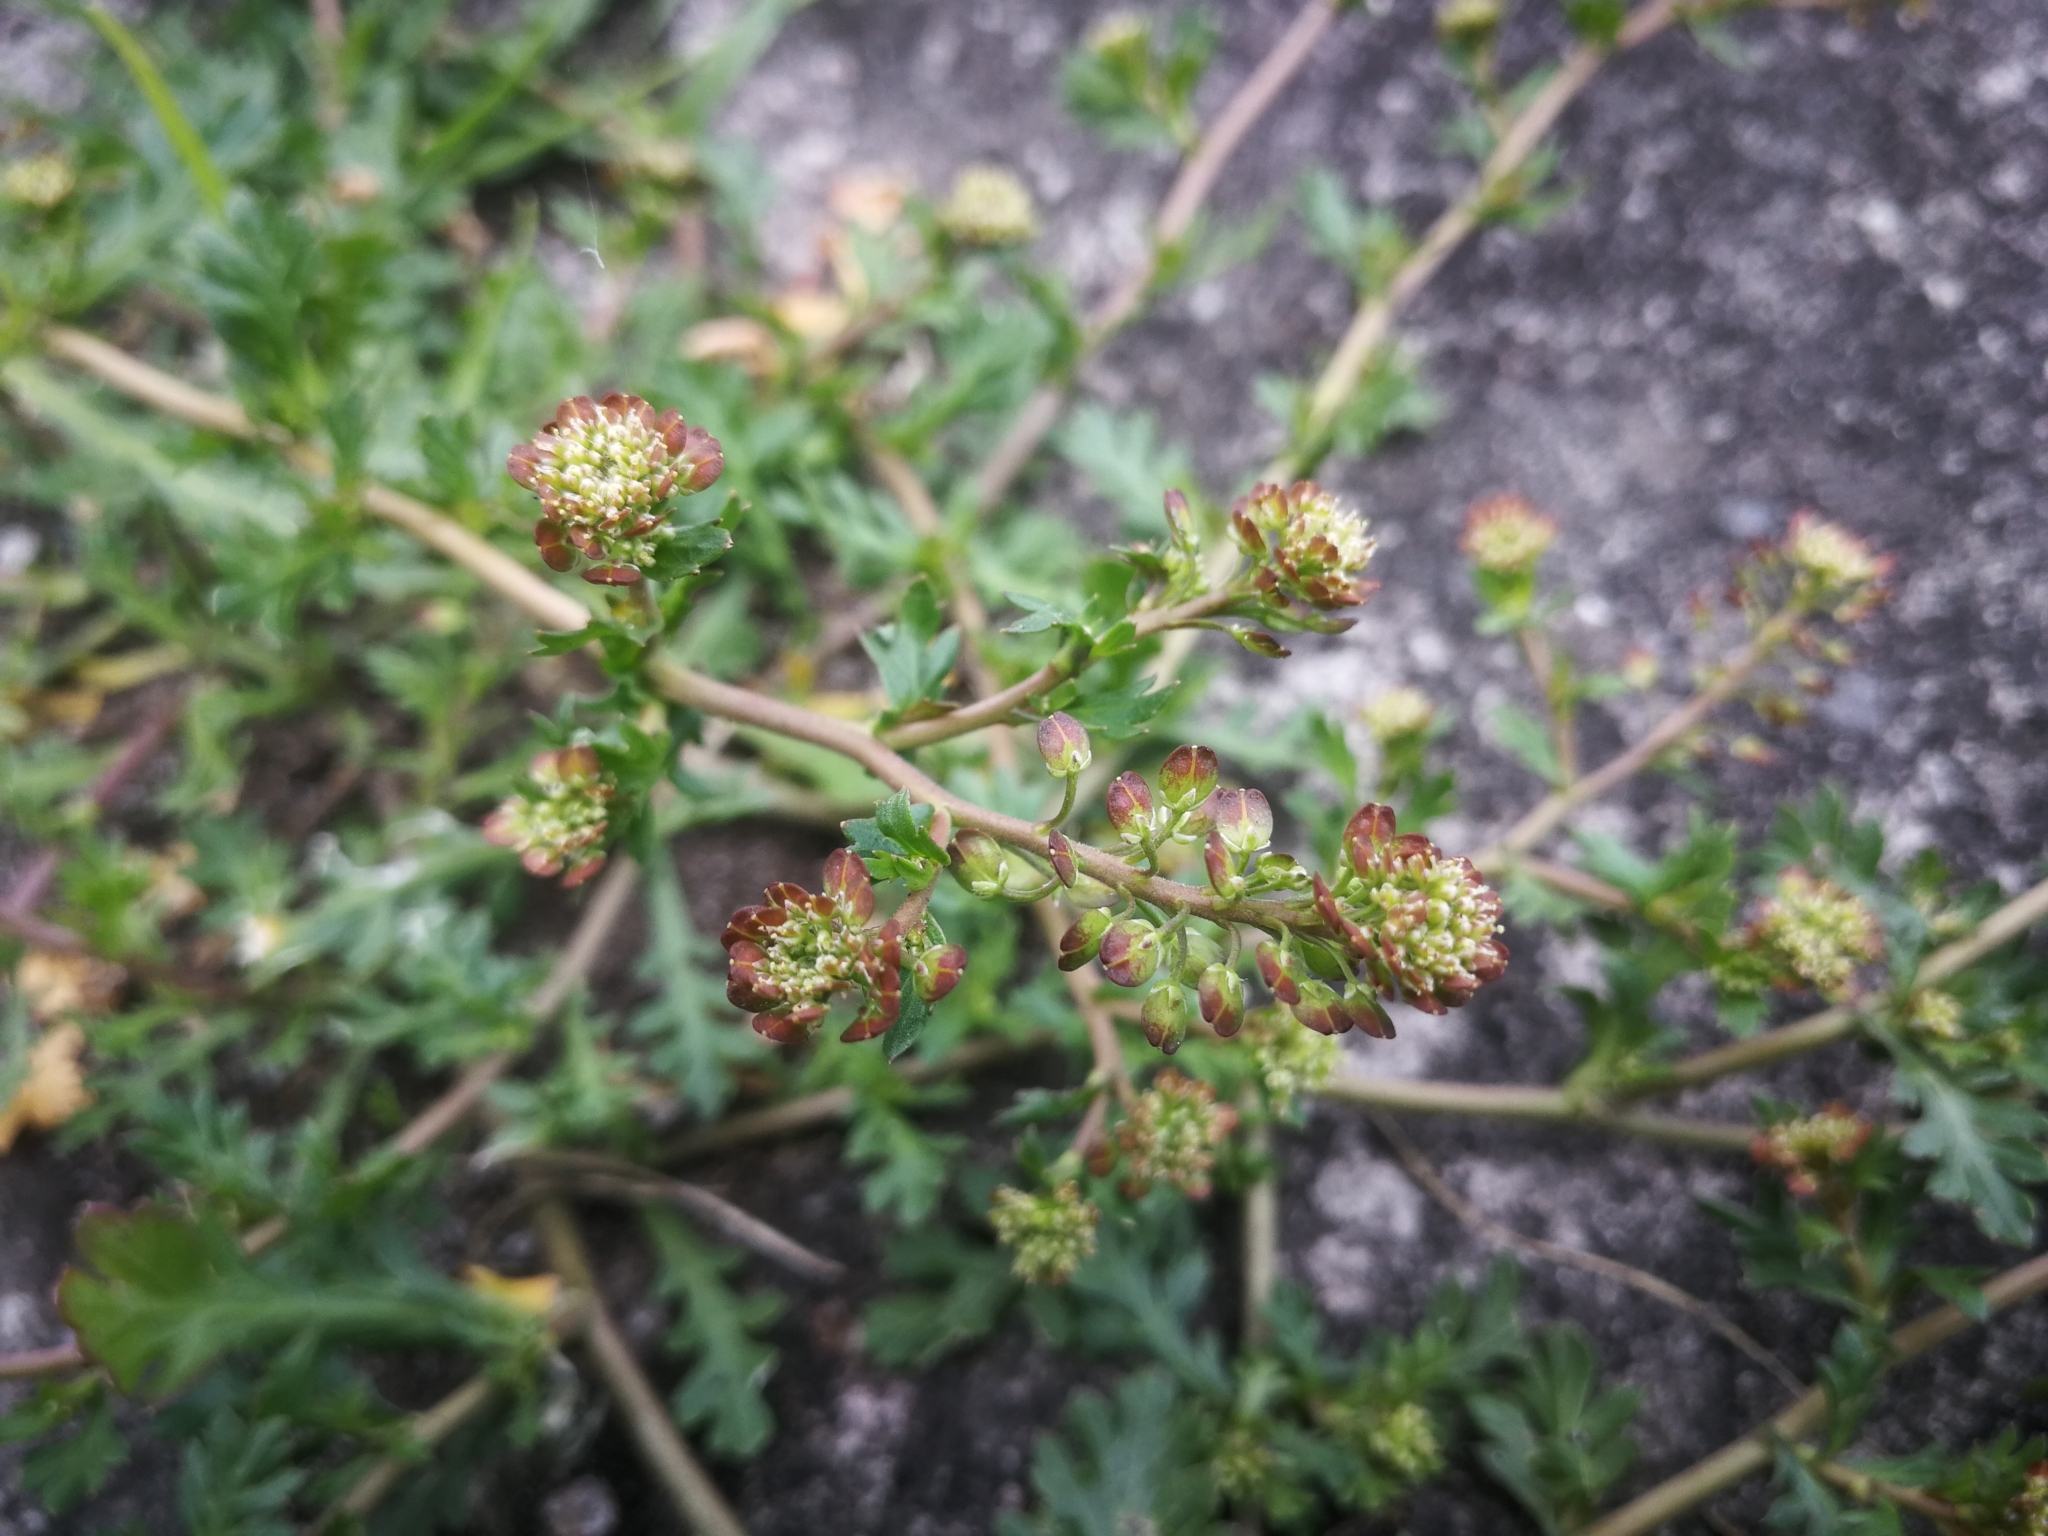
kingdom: Plantae
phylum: Tracheophyta
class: Magnoliopsida
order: Brassicales
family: Brassicaceae
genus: Lepidium
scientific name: Lepidium bipinnatifidum
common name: Wayside pepperwort
